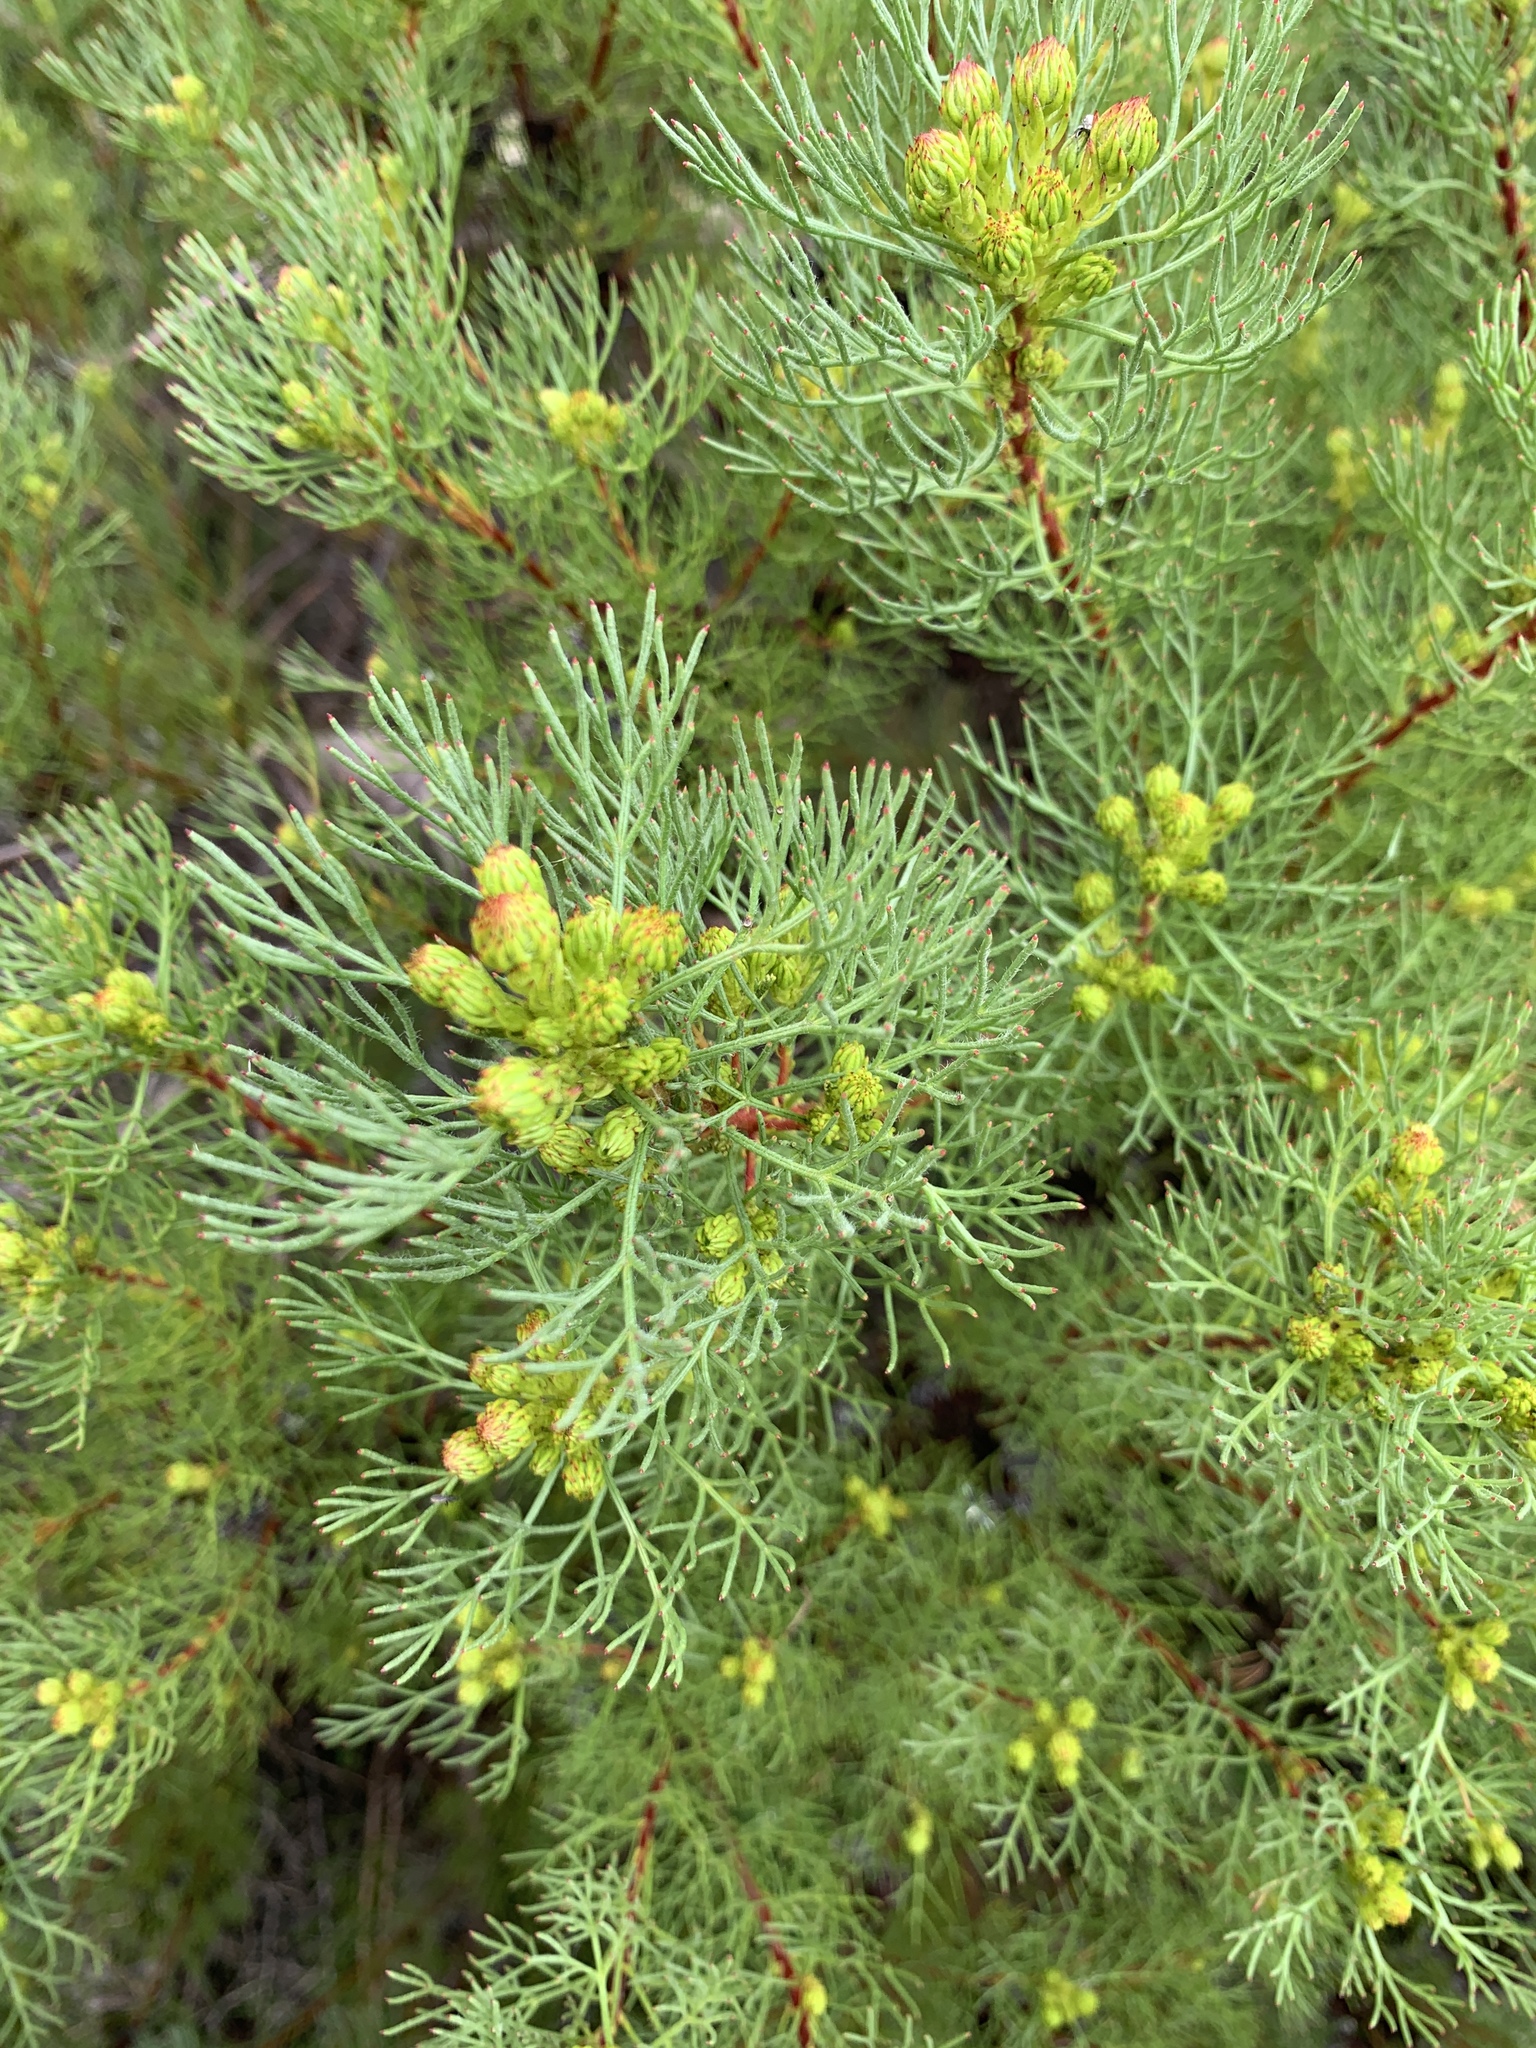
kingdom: Plantae
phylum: Tracheophyta
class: Magnoliopsida
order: Proteales
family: Proteaceae
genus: Serruria
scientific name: Serruria
